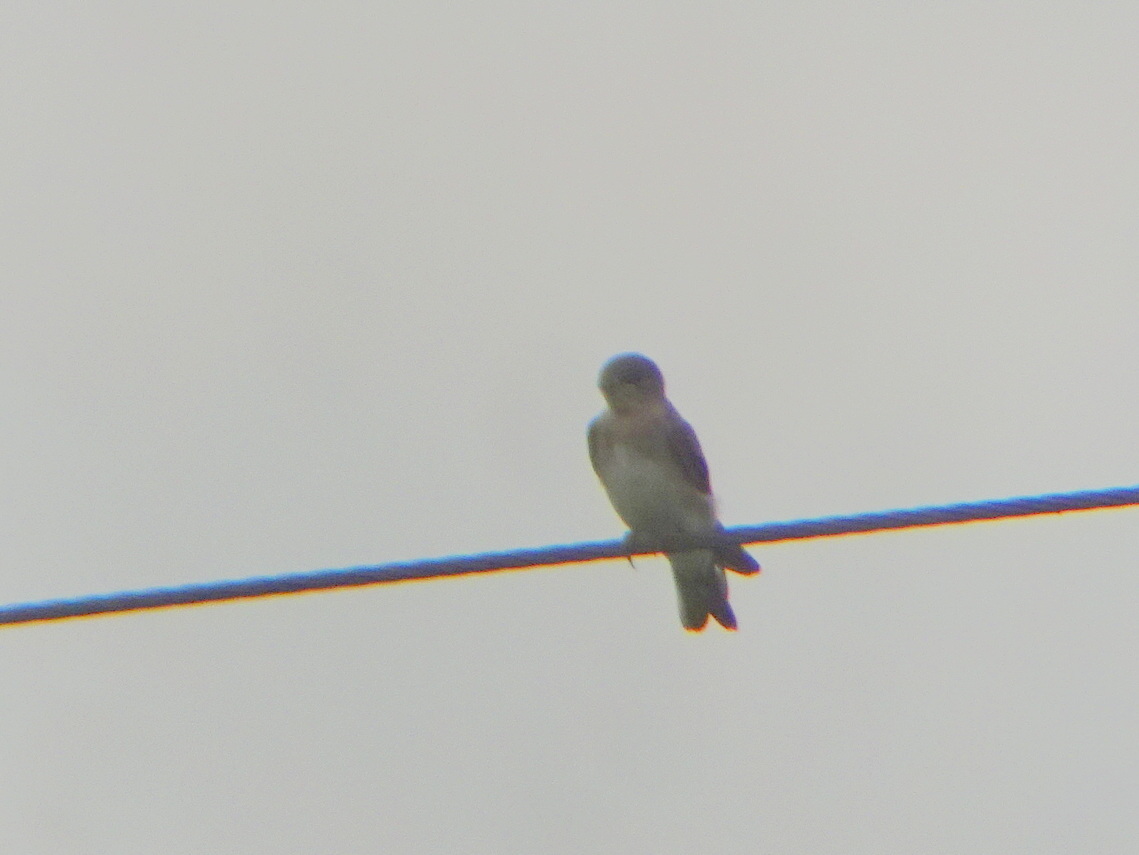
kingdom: Animalia
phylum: Chordata
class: Aves
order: Passeriformes
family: Hirundinidae
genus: Stelgidopteryx
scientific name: Stelgidopteryx serripennis
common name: Northern rough-winged swallow
